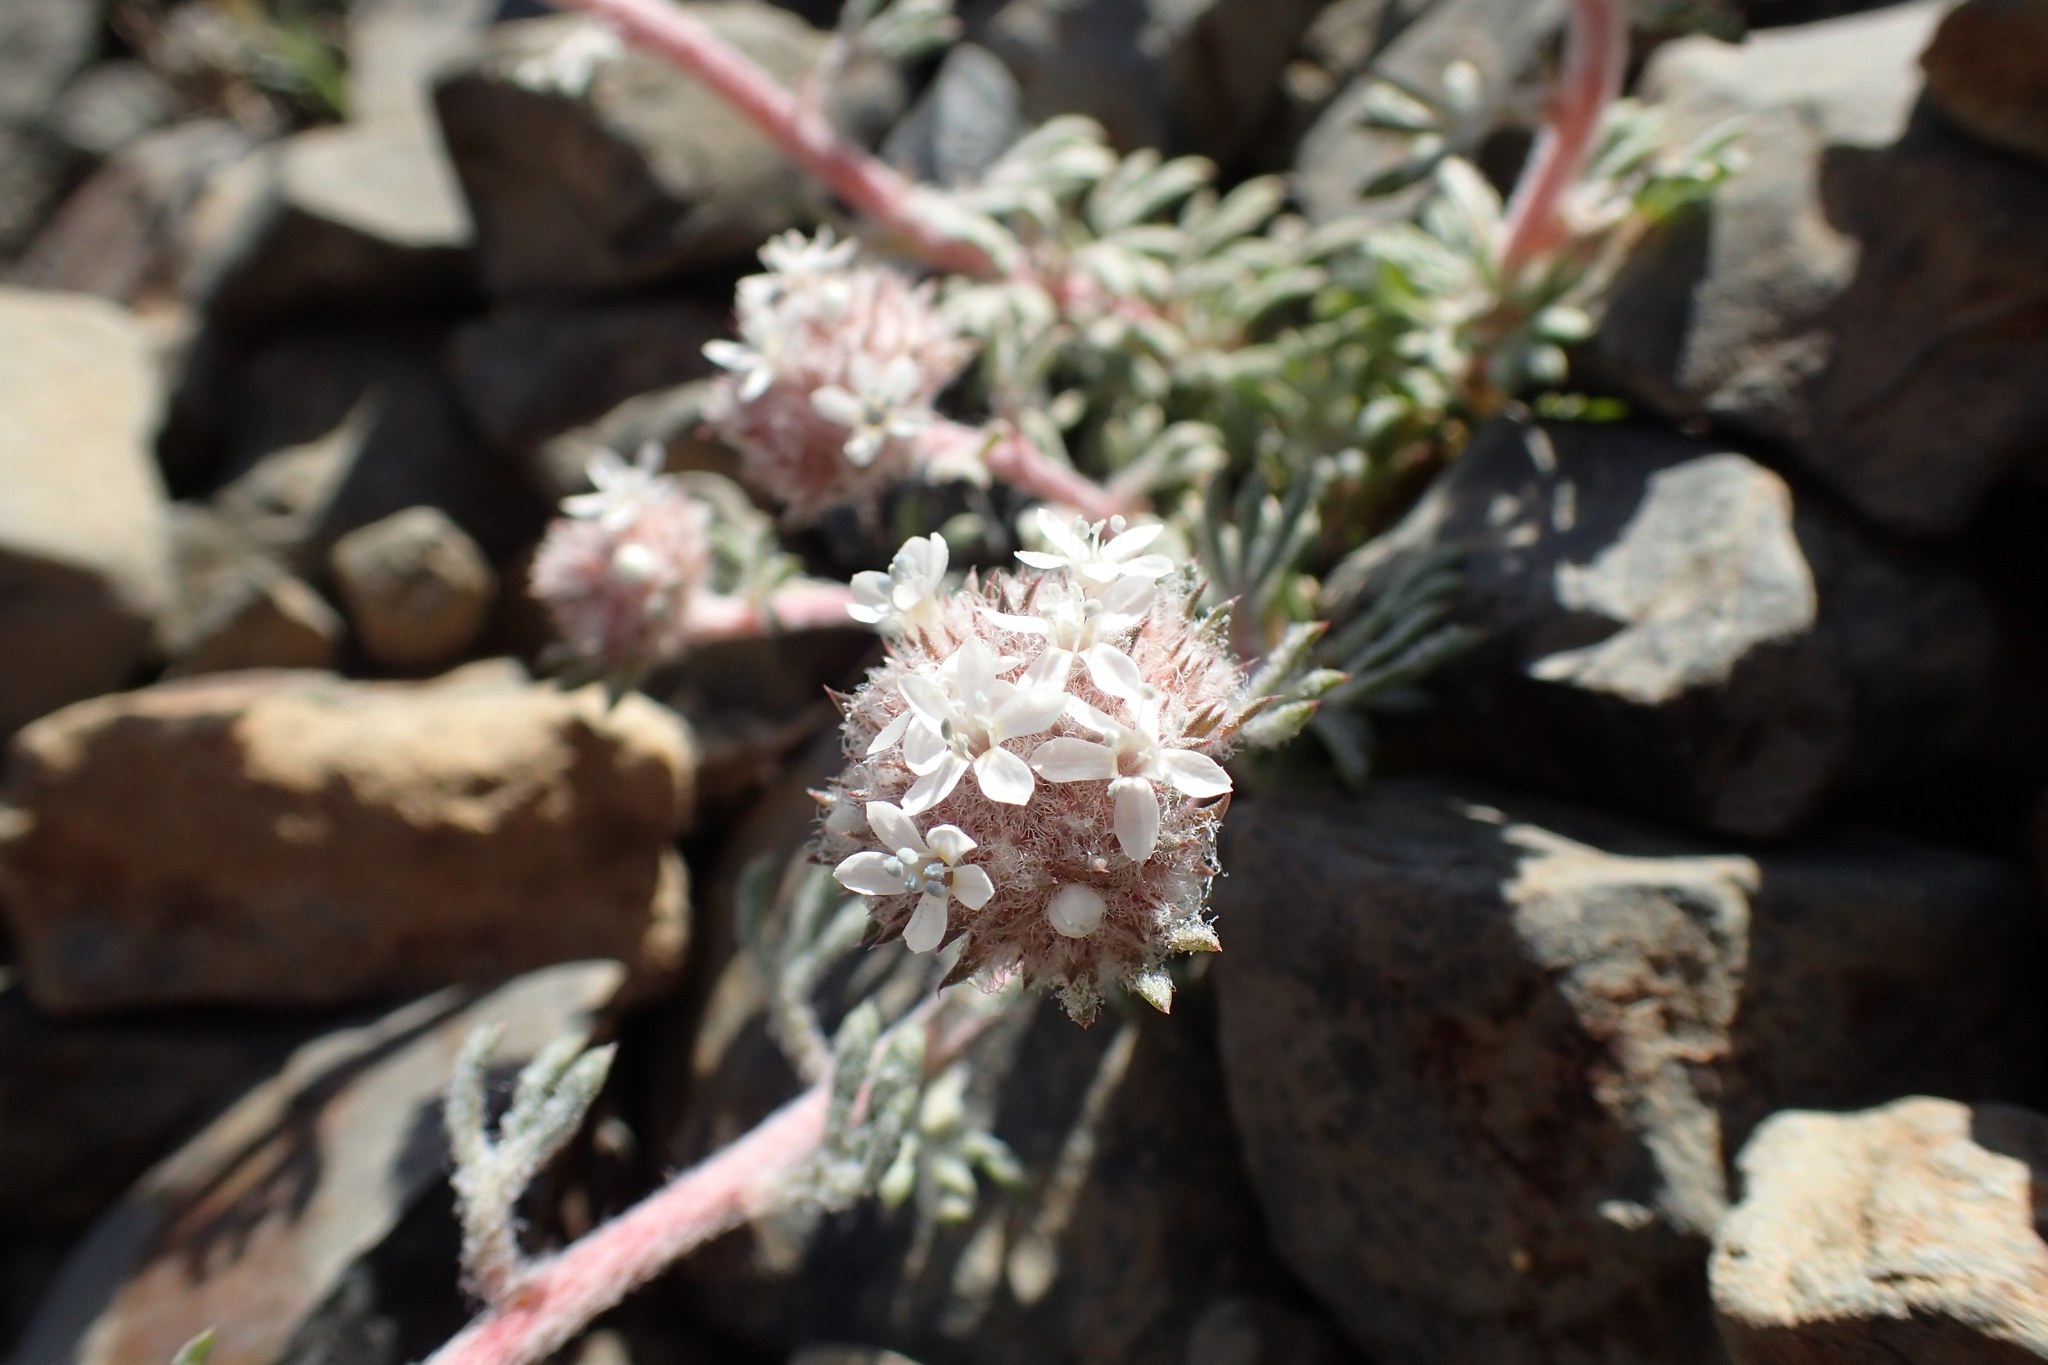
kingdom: Plantae
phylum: Tracheophyta
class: Magnoliopsida
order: Ericales
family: Polemoniaceae
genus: Ipomopsis
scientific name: Ipomopsis congesta
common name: Ball-head gilia
